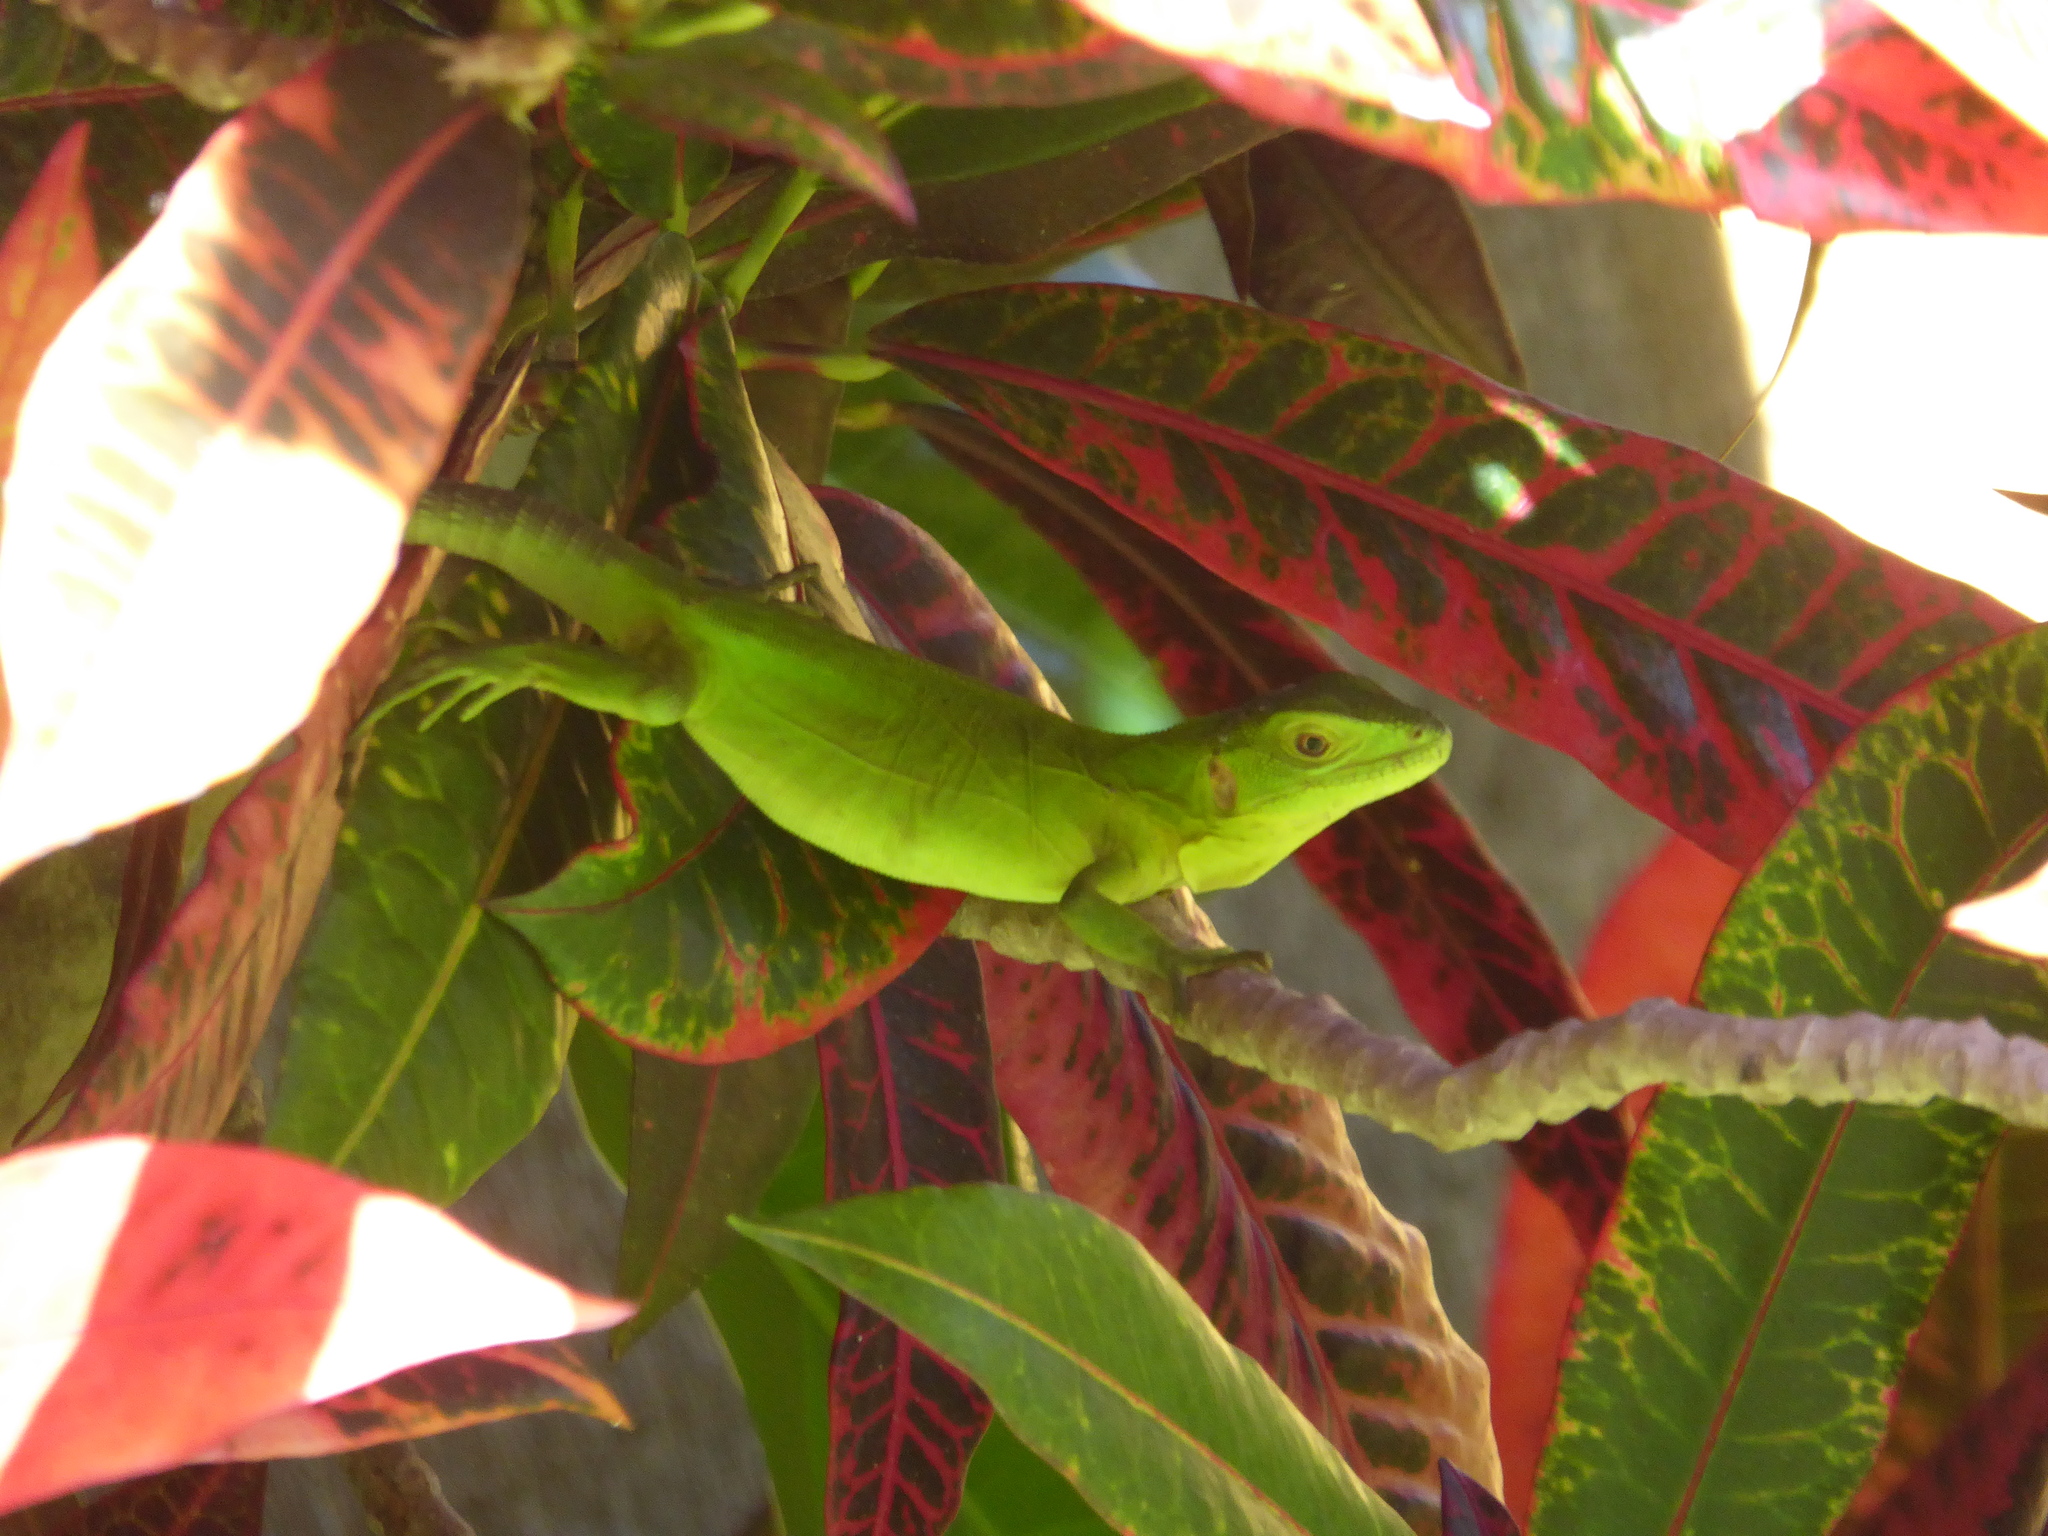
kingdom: Animalia
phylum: Chordata
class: Squamata
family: Iguanidae
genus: Ctenosaura
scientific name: Ctenosaura pectinata
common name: Guerreran spiny-tailed iguana
